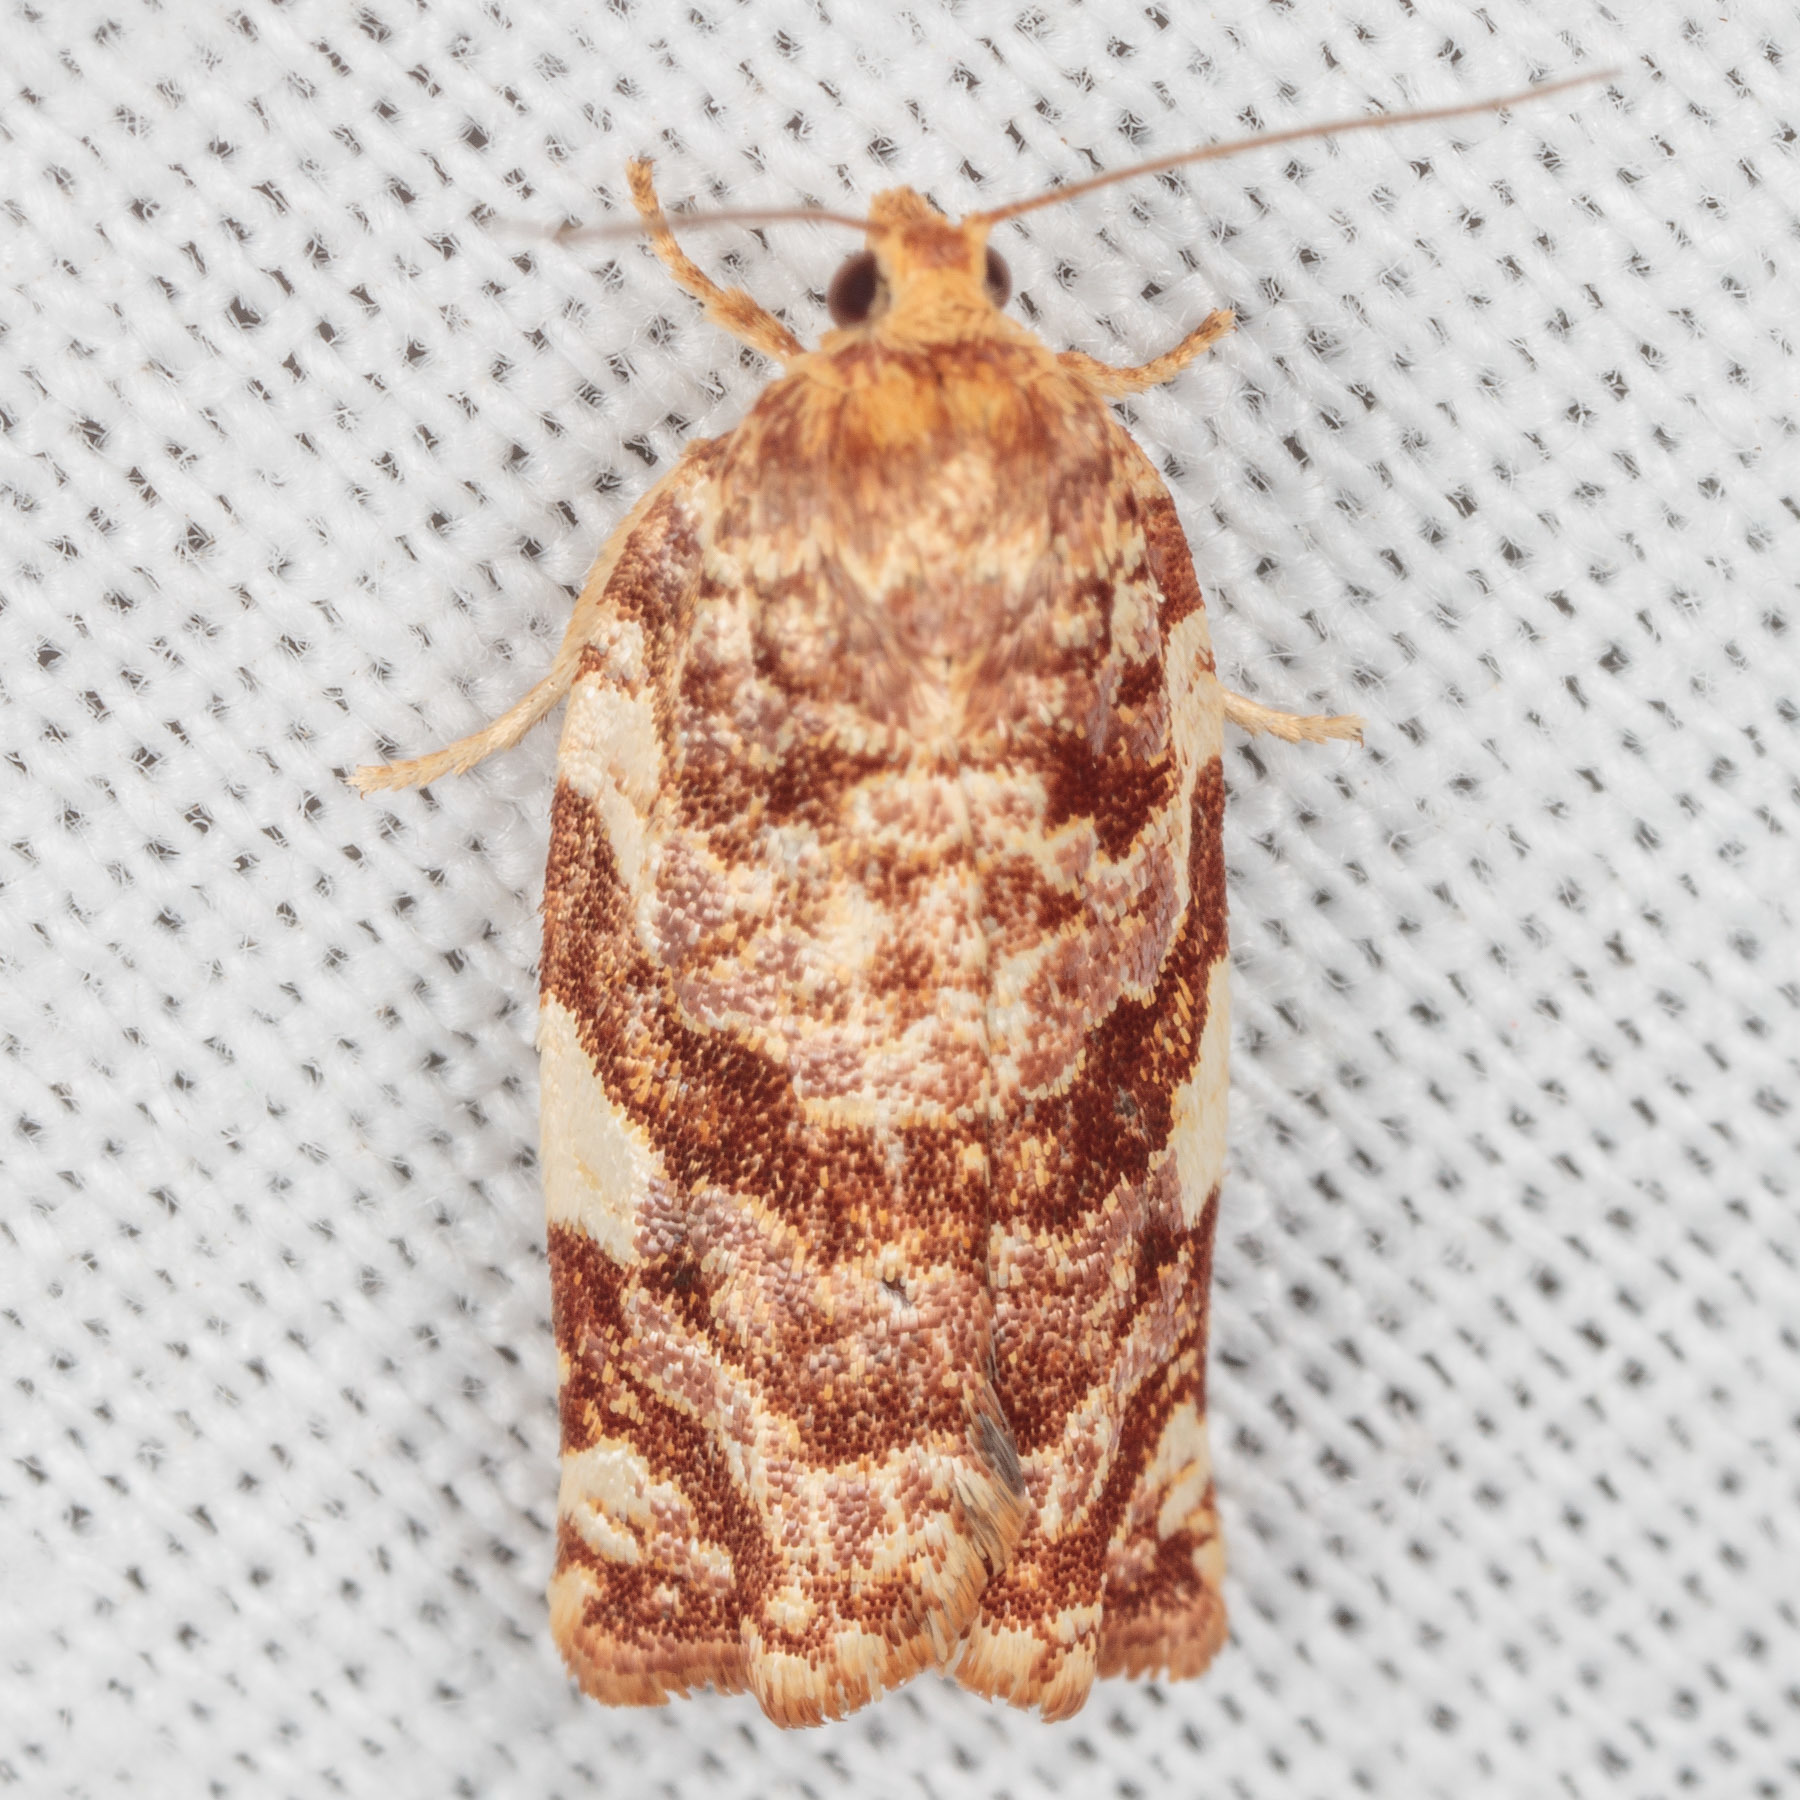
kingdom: Animalia
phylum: Arthropoda
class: Insecta
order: Lepidoptera
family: Tortricidae
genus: Archips
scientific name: Archips argyrospila
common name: Fruit-tree leafroller moth
